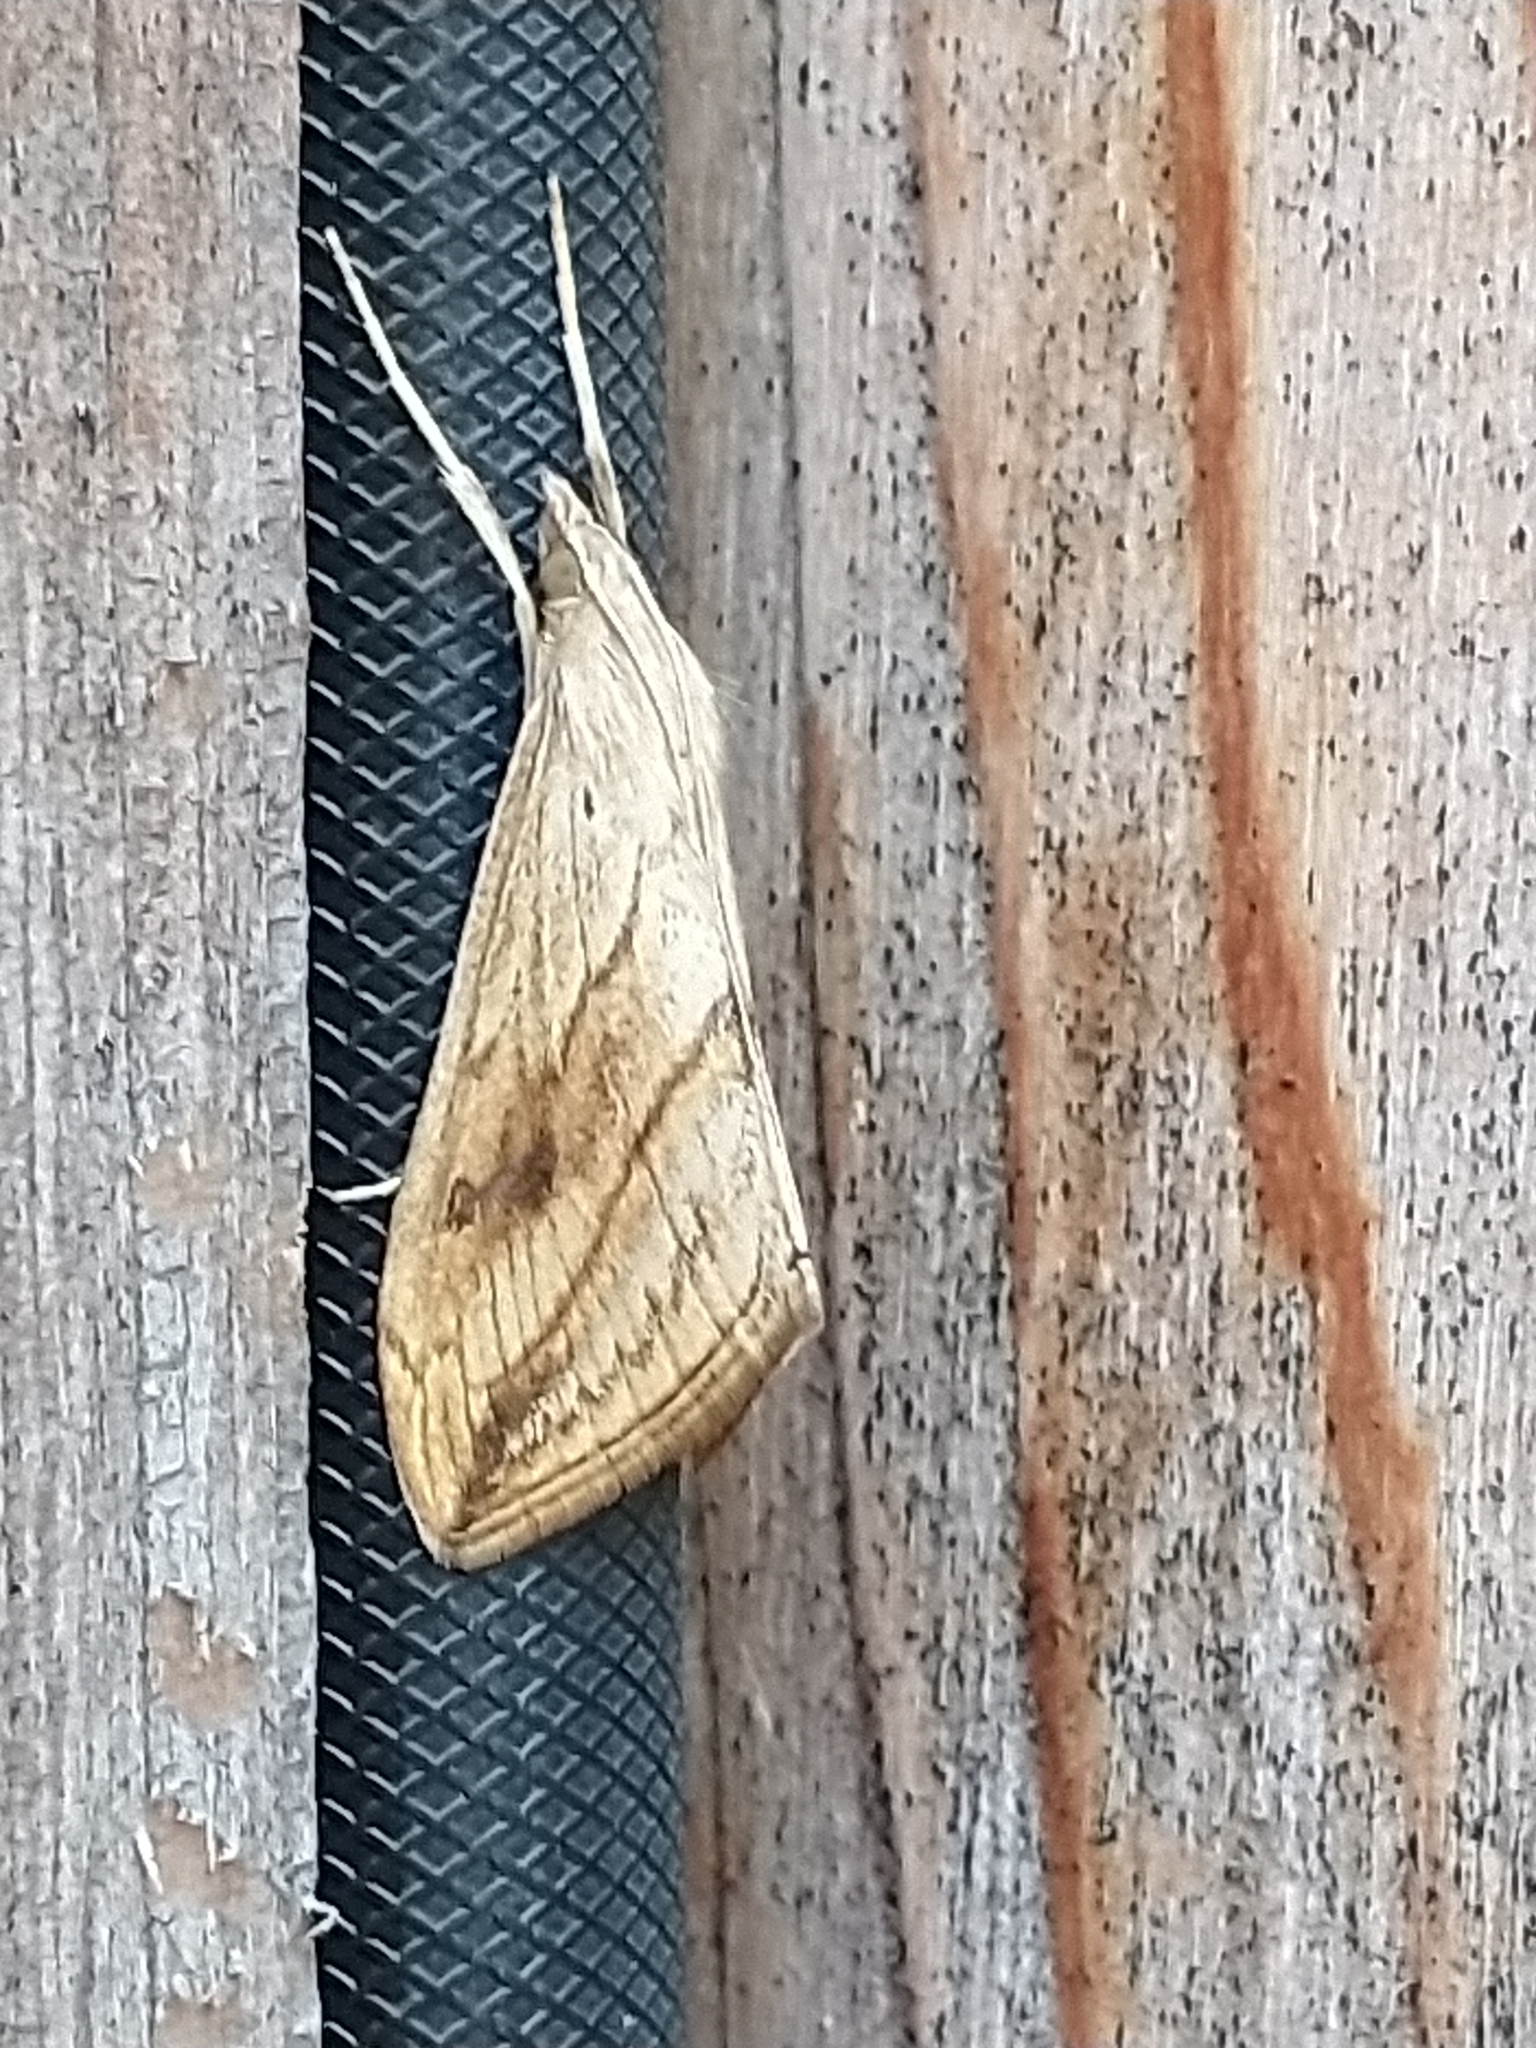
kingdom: Animalia
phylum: Arthropoda
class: Insecta
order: Lepidoptera
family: Crambidae
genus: Evergestis
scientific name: Evergestis forficalis
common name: Garden pebble
